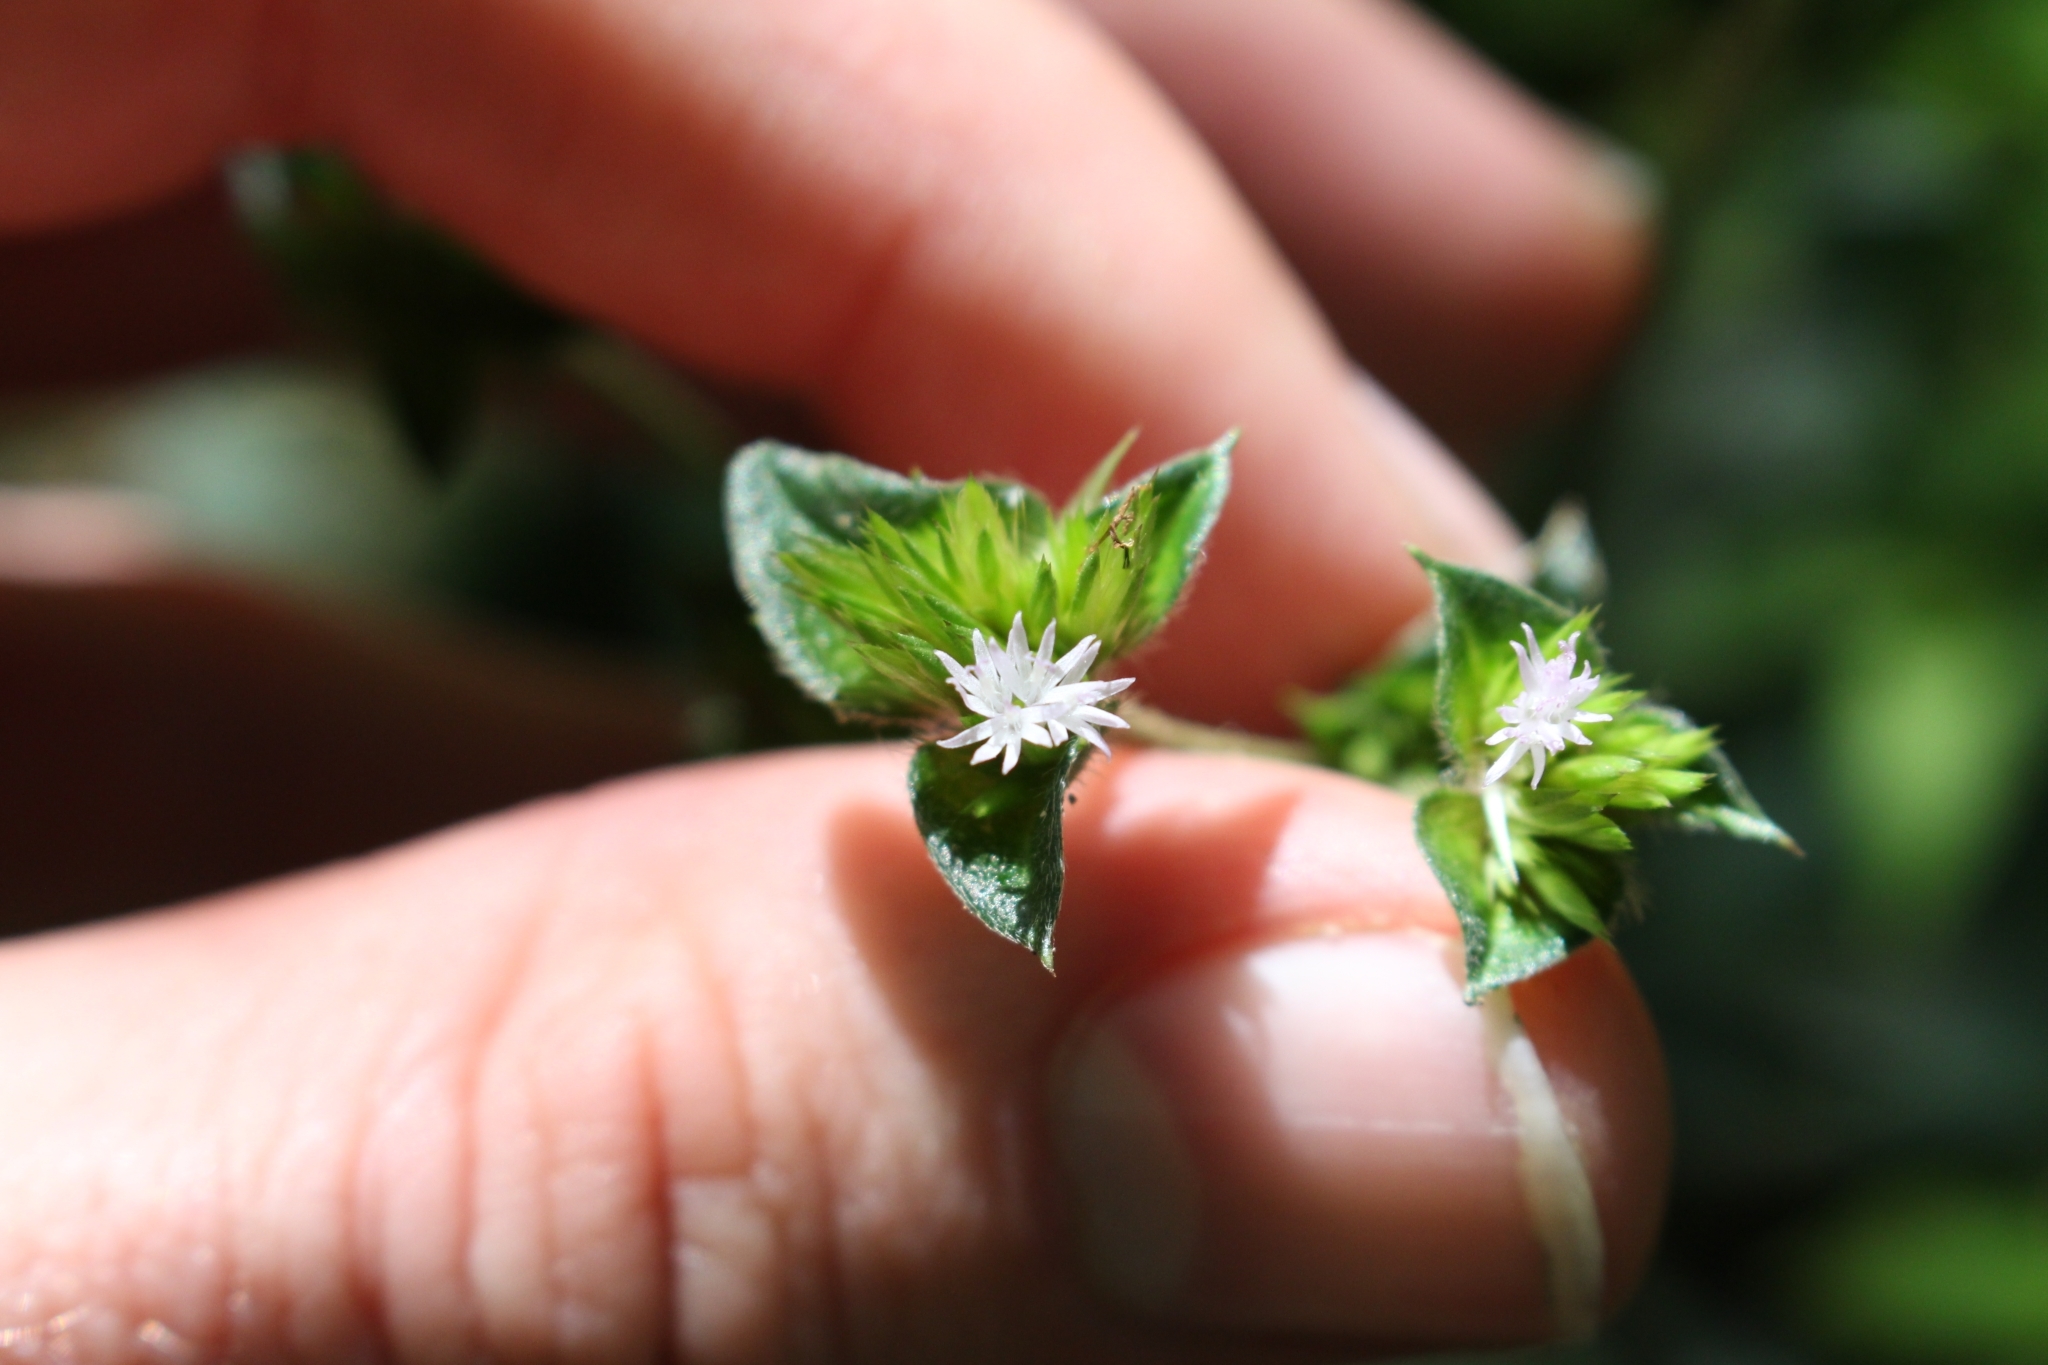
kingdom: Plantae
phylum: Tracheophyta
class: Magnoliopsida
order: Asterales
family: Asteraceae
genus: Elephantopus
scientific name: Elephantopus mollis
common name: Soft elephantsfoot
